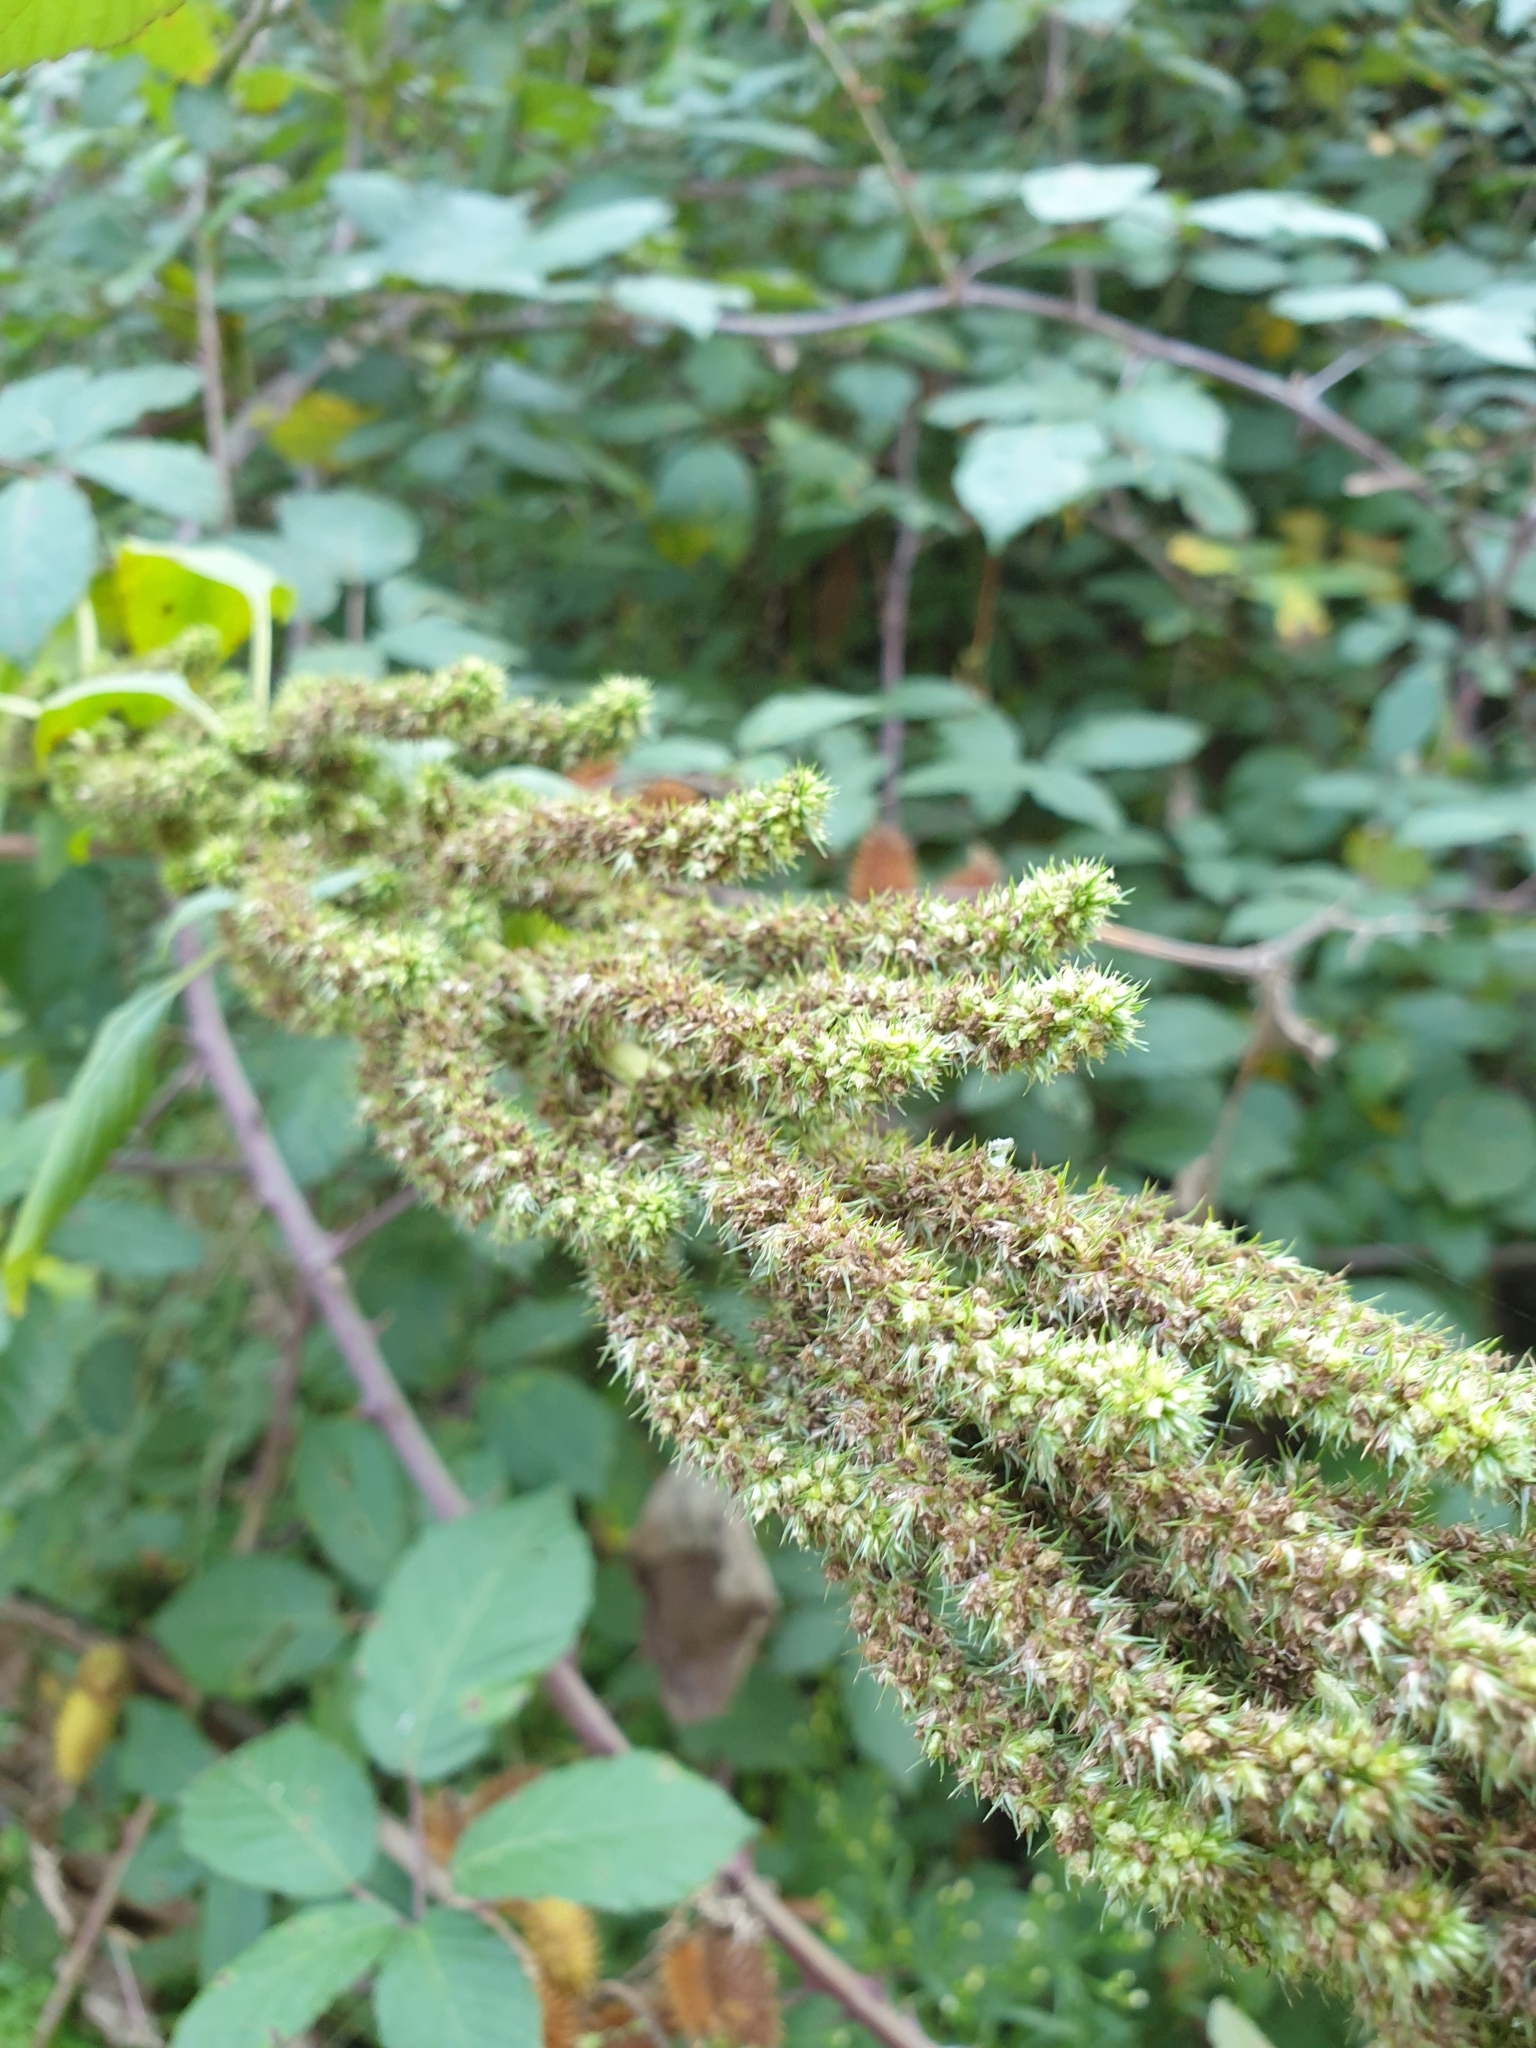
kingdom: Plantae
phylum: Tracheophyta
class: Magnoliopsida
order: Caryophyllales
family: Amaranthaceae
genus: Amaranthus
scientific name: Amaranthus retroflexus
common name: Redroot amaranth
